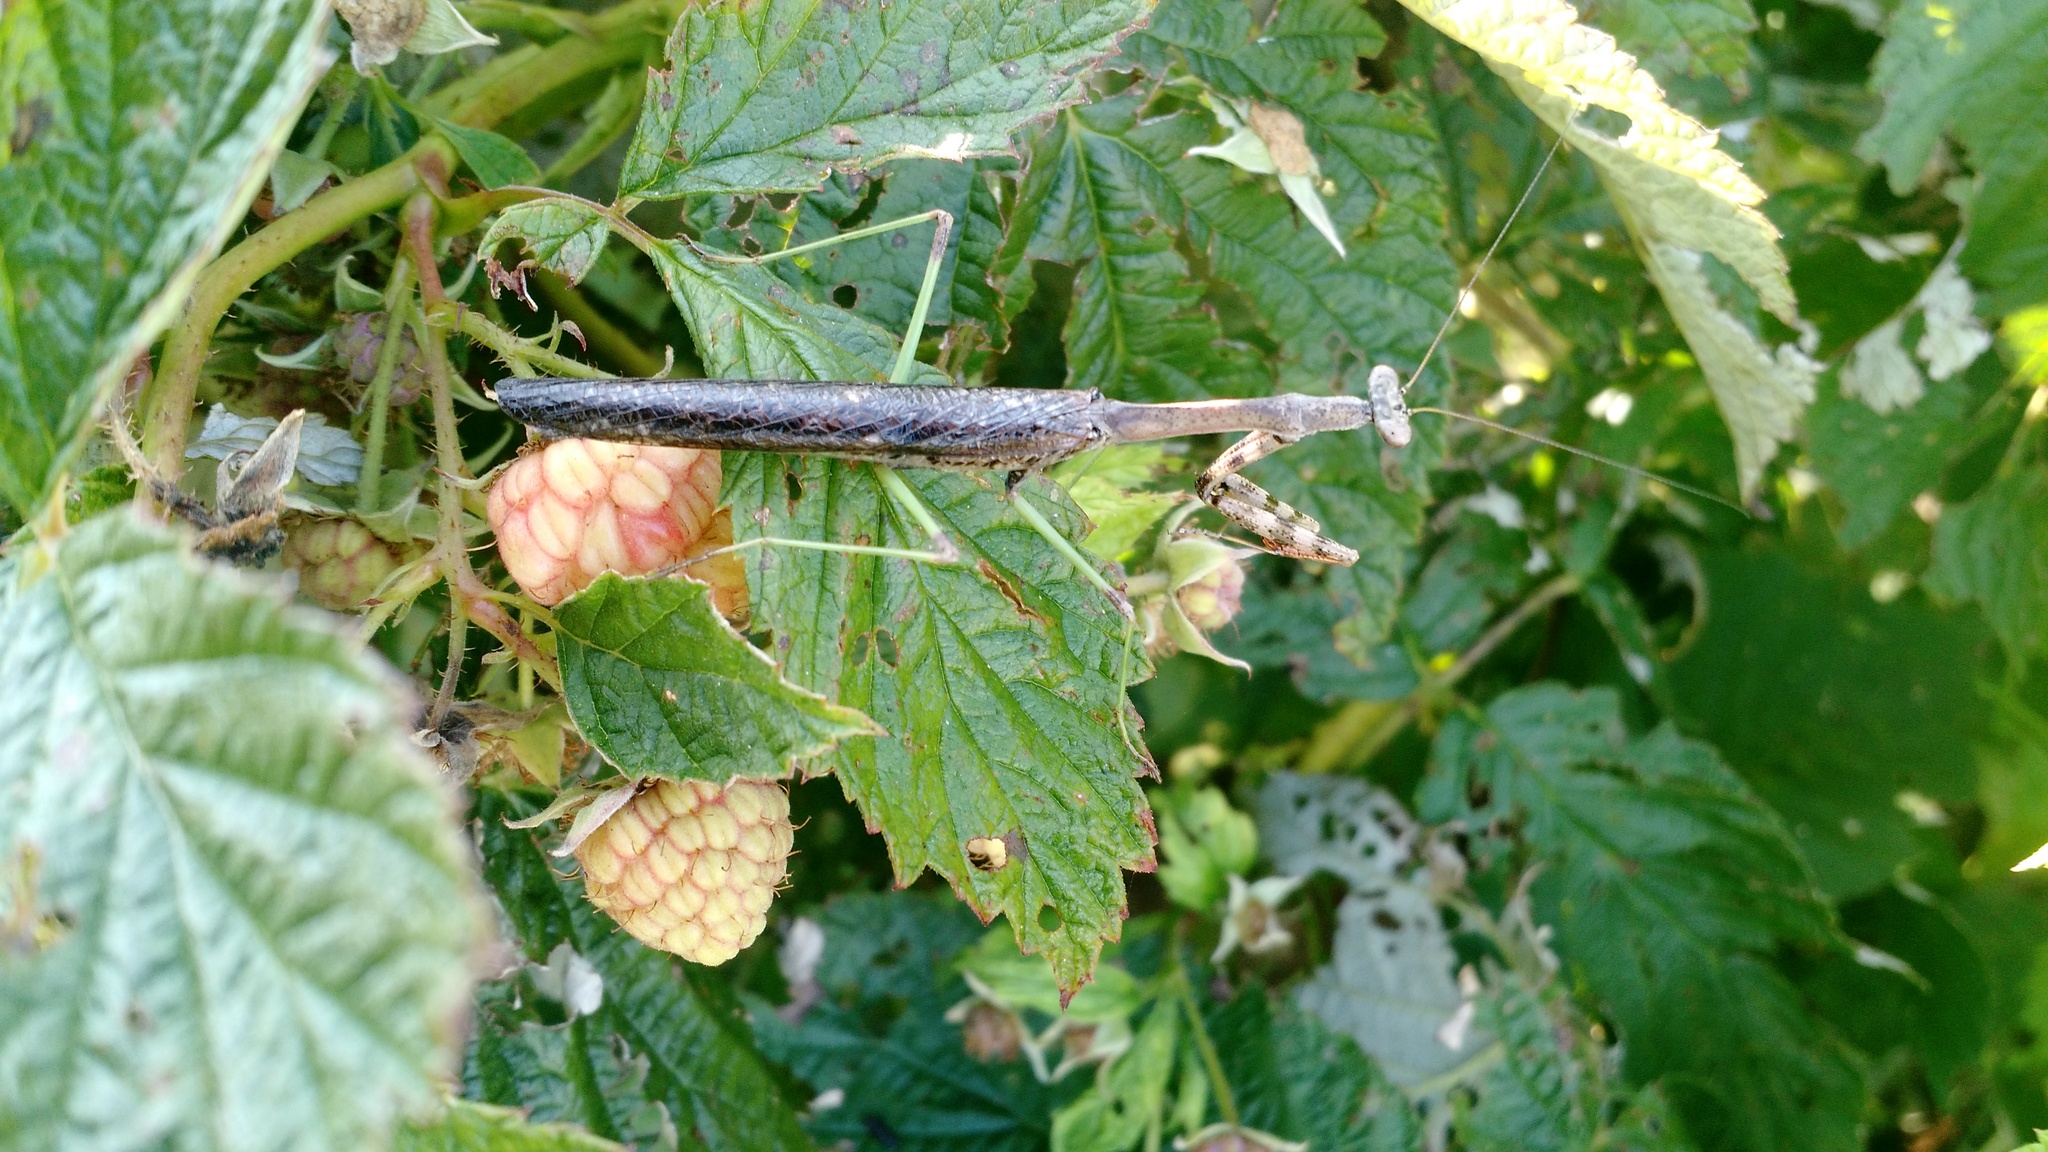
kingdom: Animalia
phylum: Arthropoda
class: Insecta
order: Mantodea
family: Mantidae
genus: Stagmomantis
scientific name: Stagmomantis carolina
